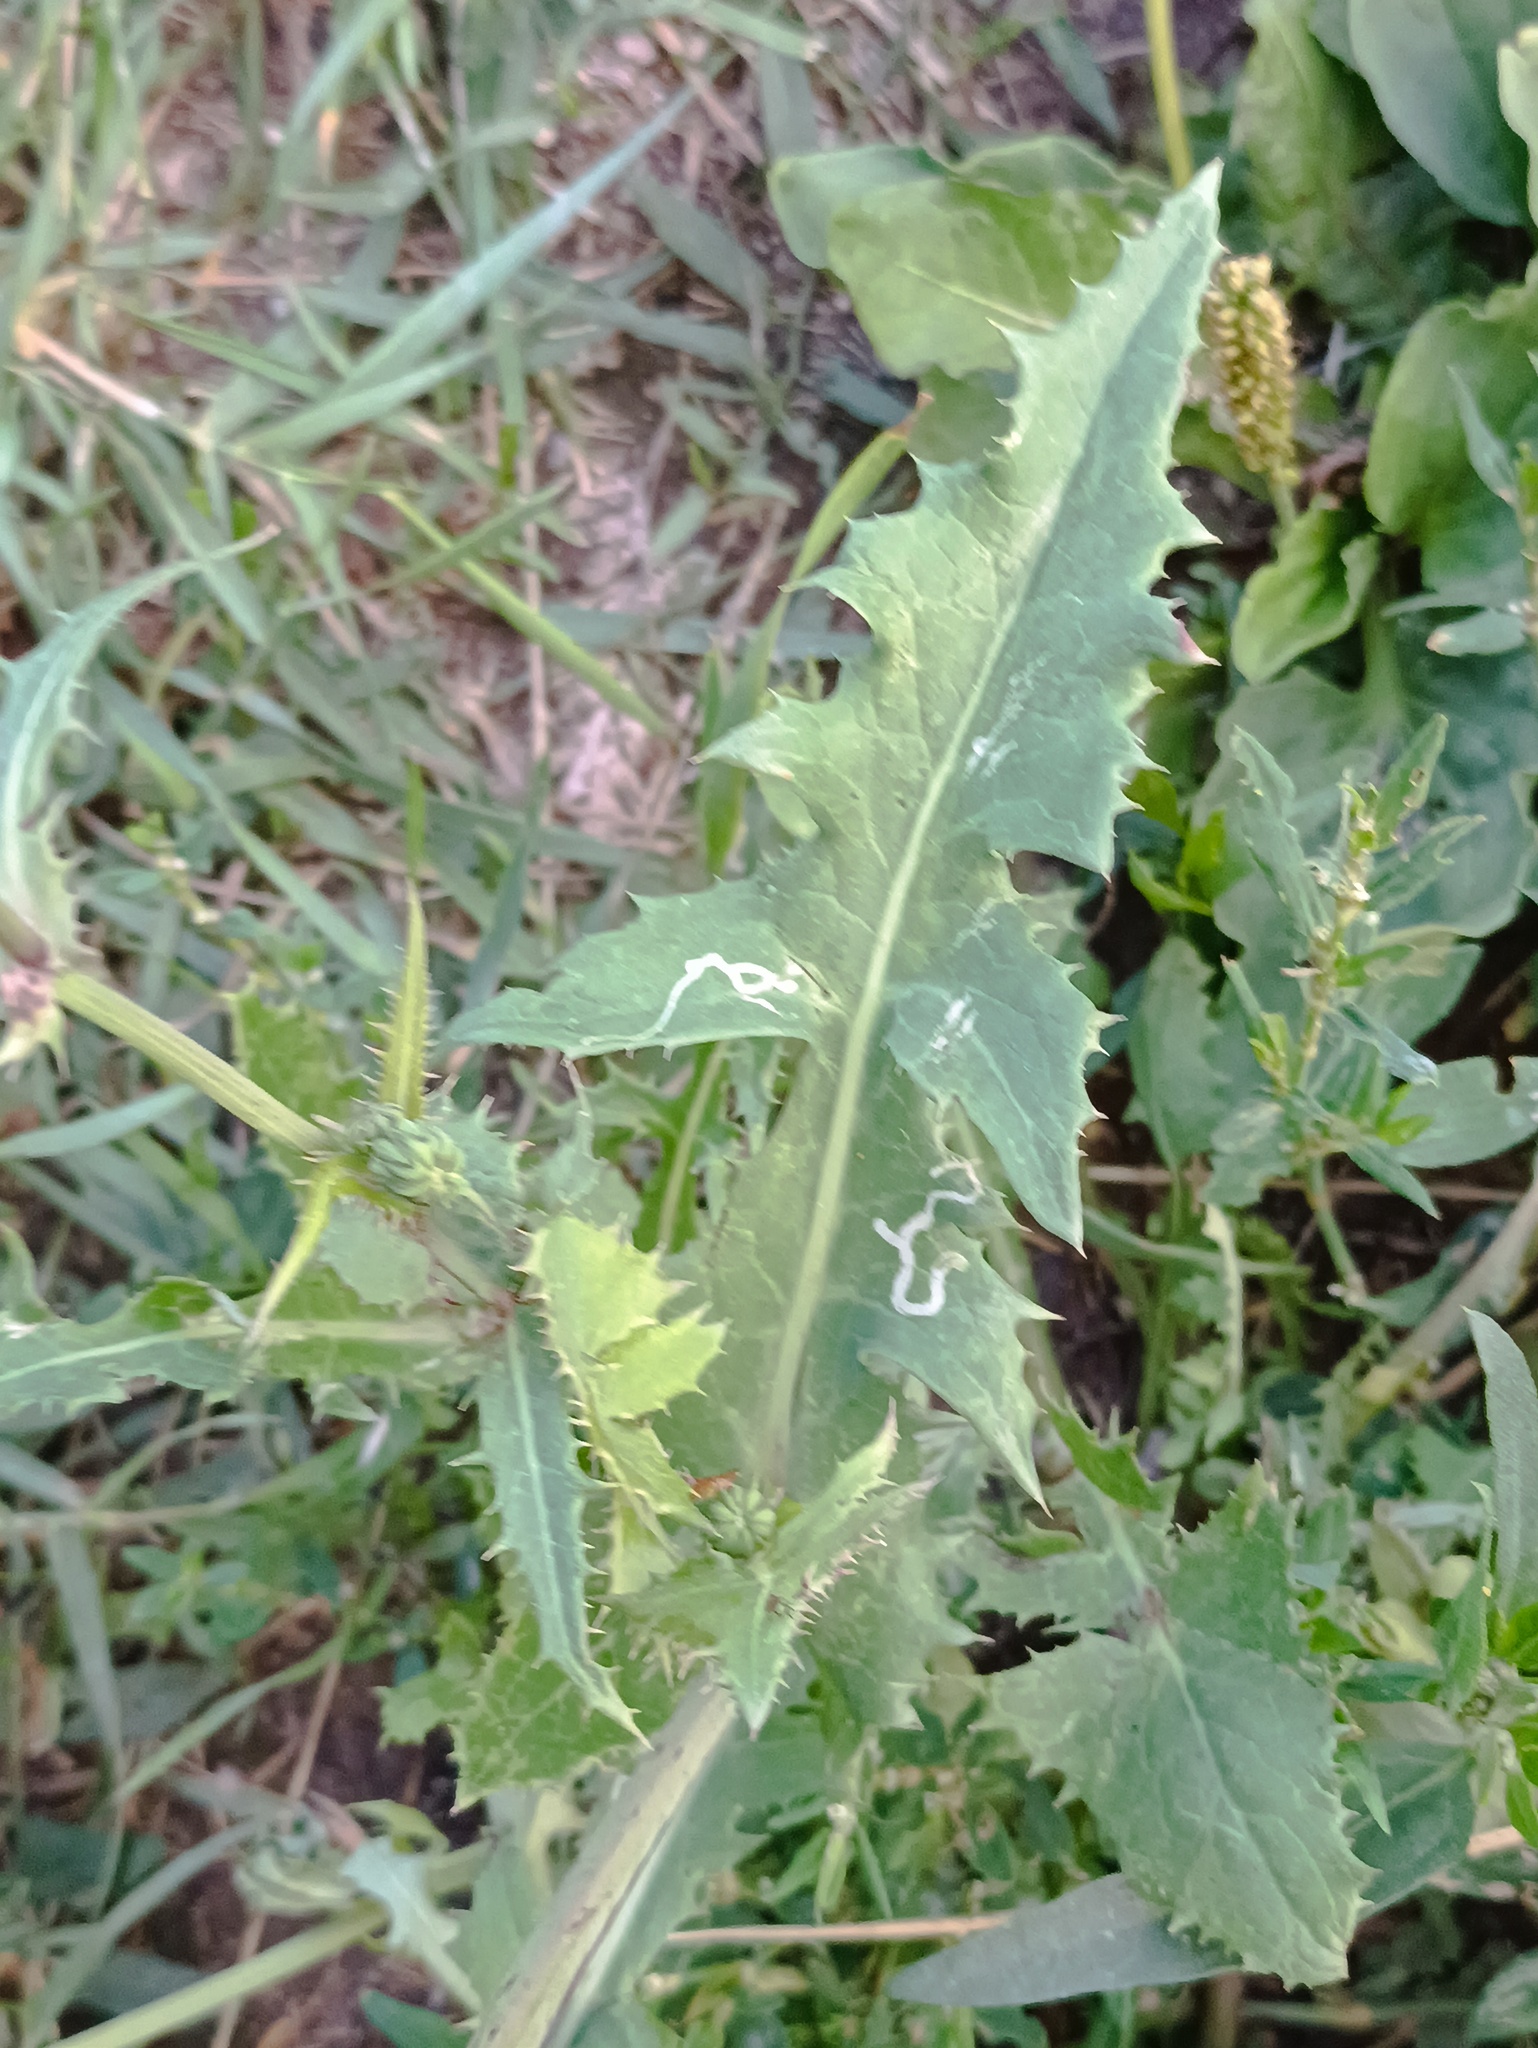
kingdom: Plantae
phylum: Tracheophyta
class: Magnoliopsida
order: Asterales
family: Asteraceae
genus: Sonchus
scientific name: Sonchus oleraceus
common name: Common sowthistle
